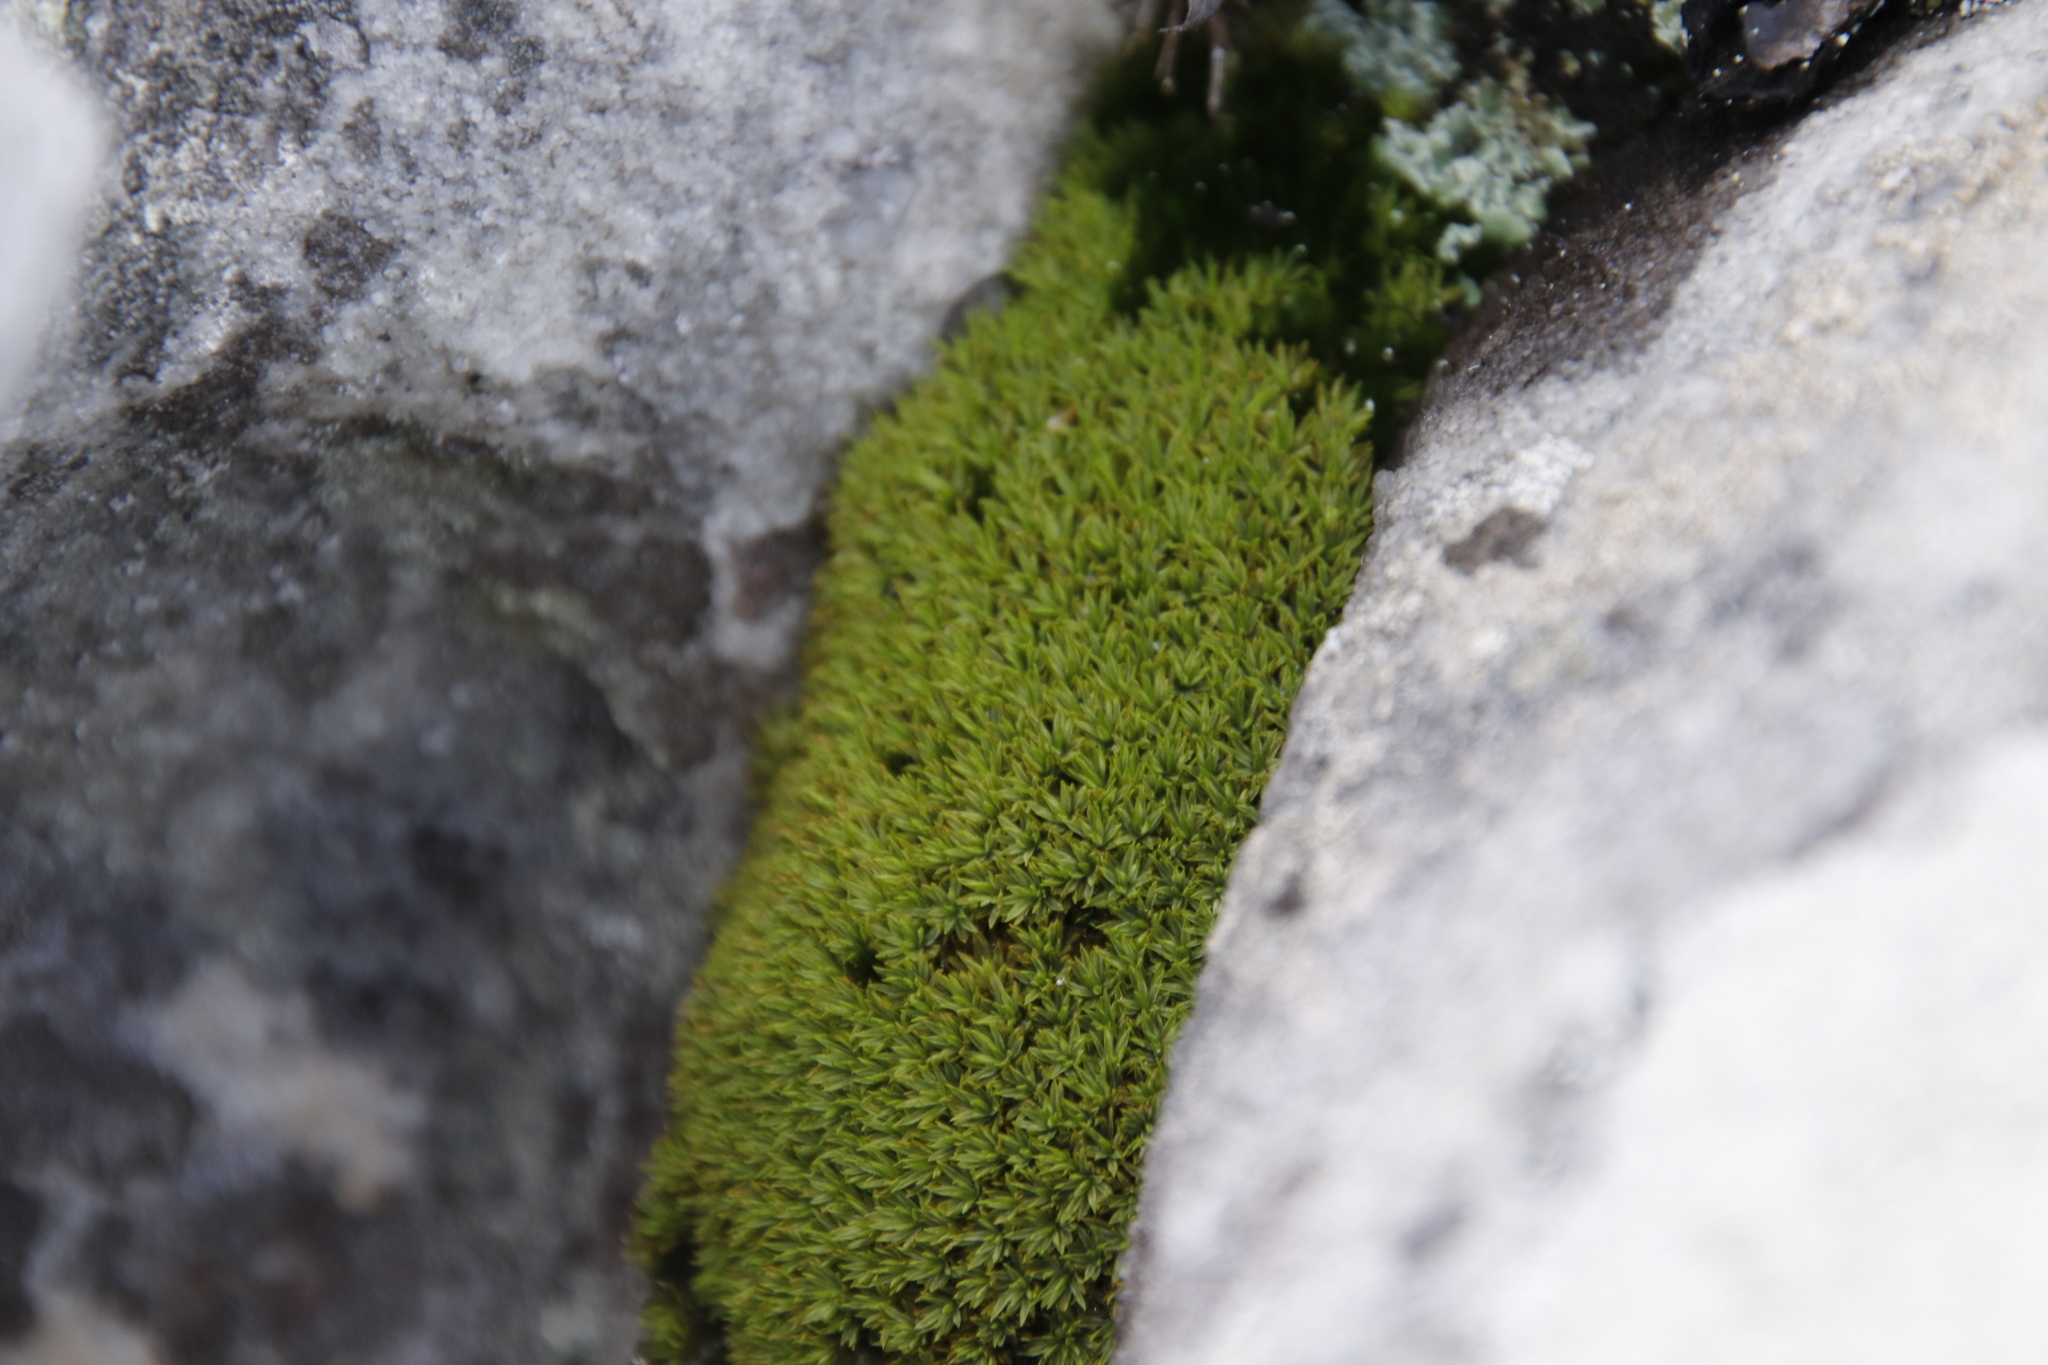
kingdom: Plantae
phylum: Bryophyta
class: Bryopsida
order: Dicranales
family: Hypodontiaceae
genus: Hypodontium
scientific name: Hypodontium pomiforme
